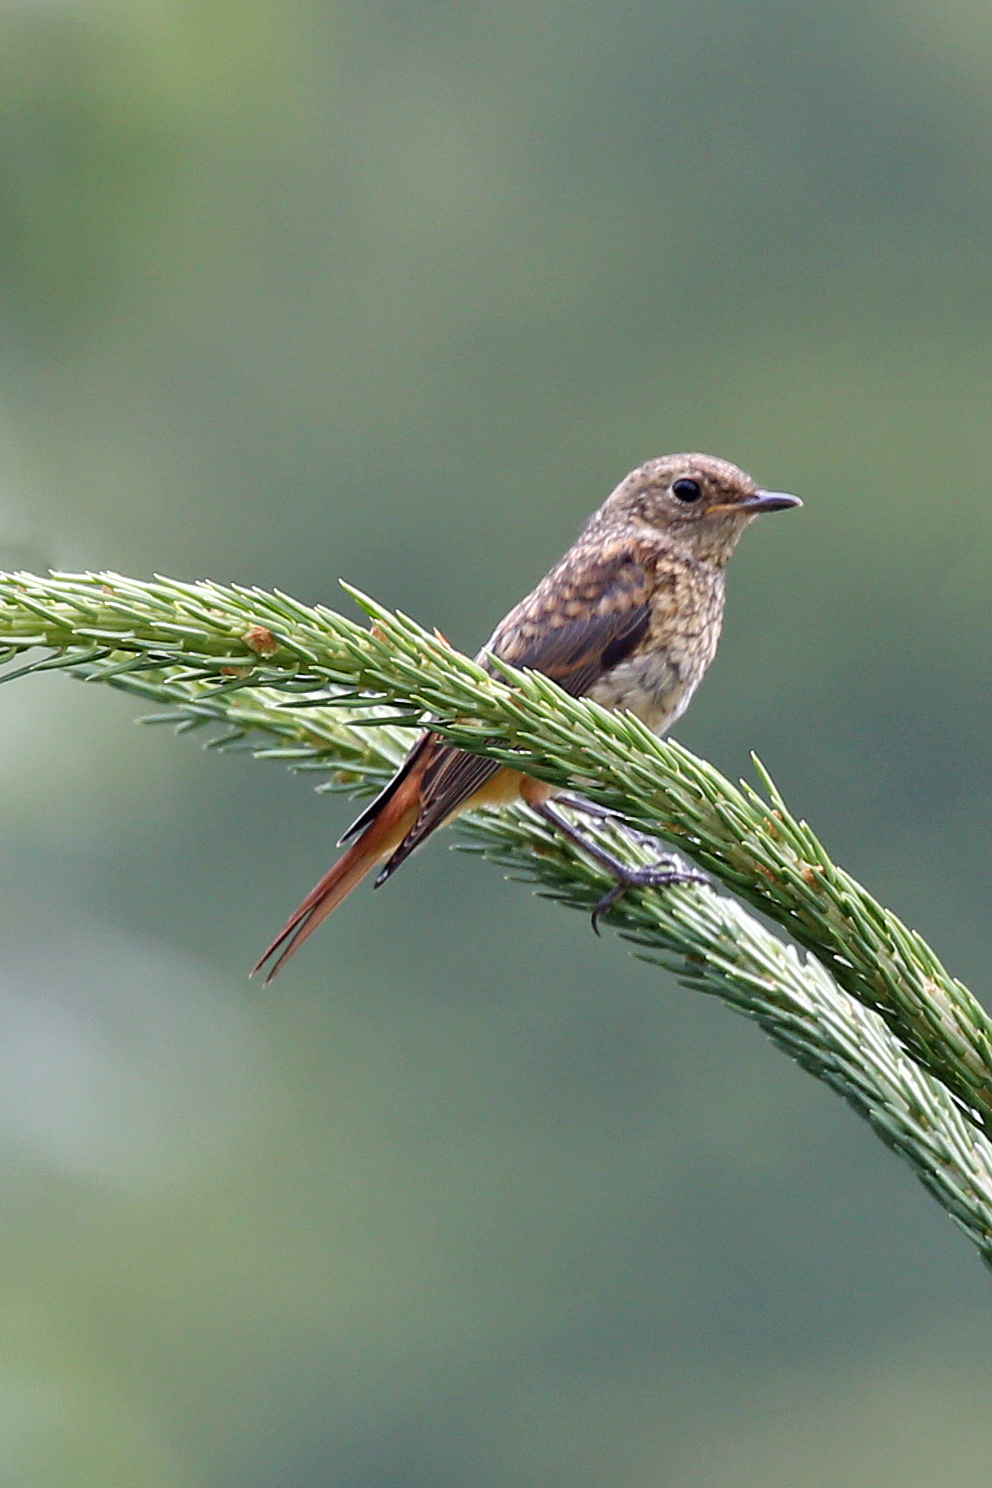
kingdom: Animalia
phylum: Chordata
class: Aves
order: Passeriformes
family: Muscicapidae
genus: Phoenicurus
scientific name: Phoenicurus phoenicurus
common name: Common redstart
